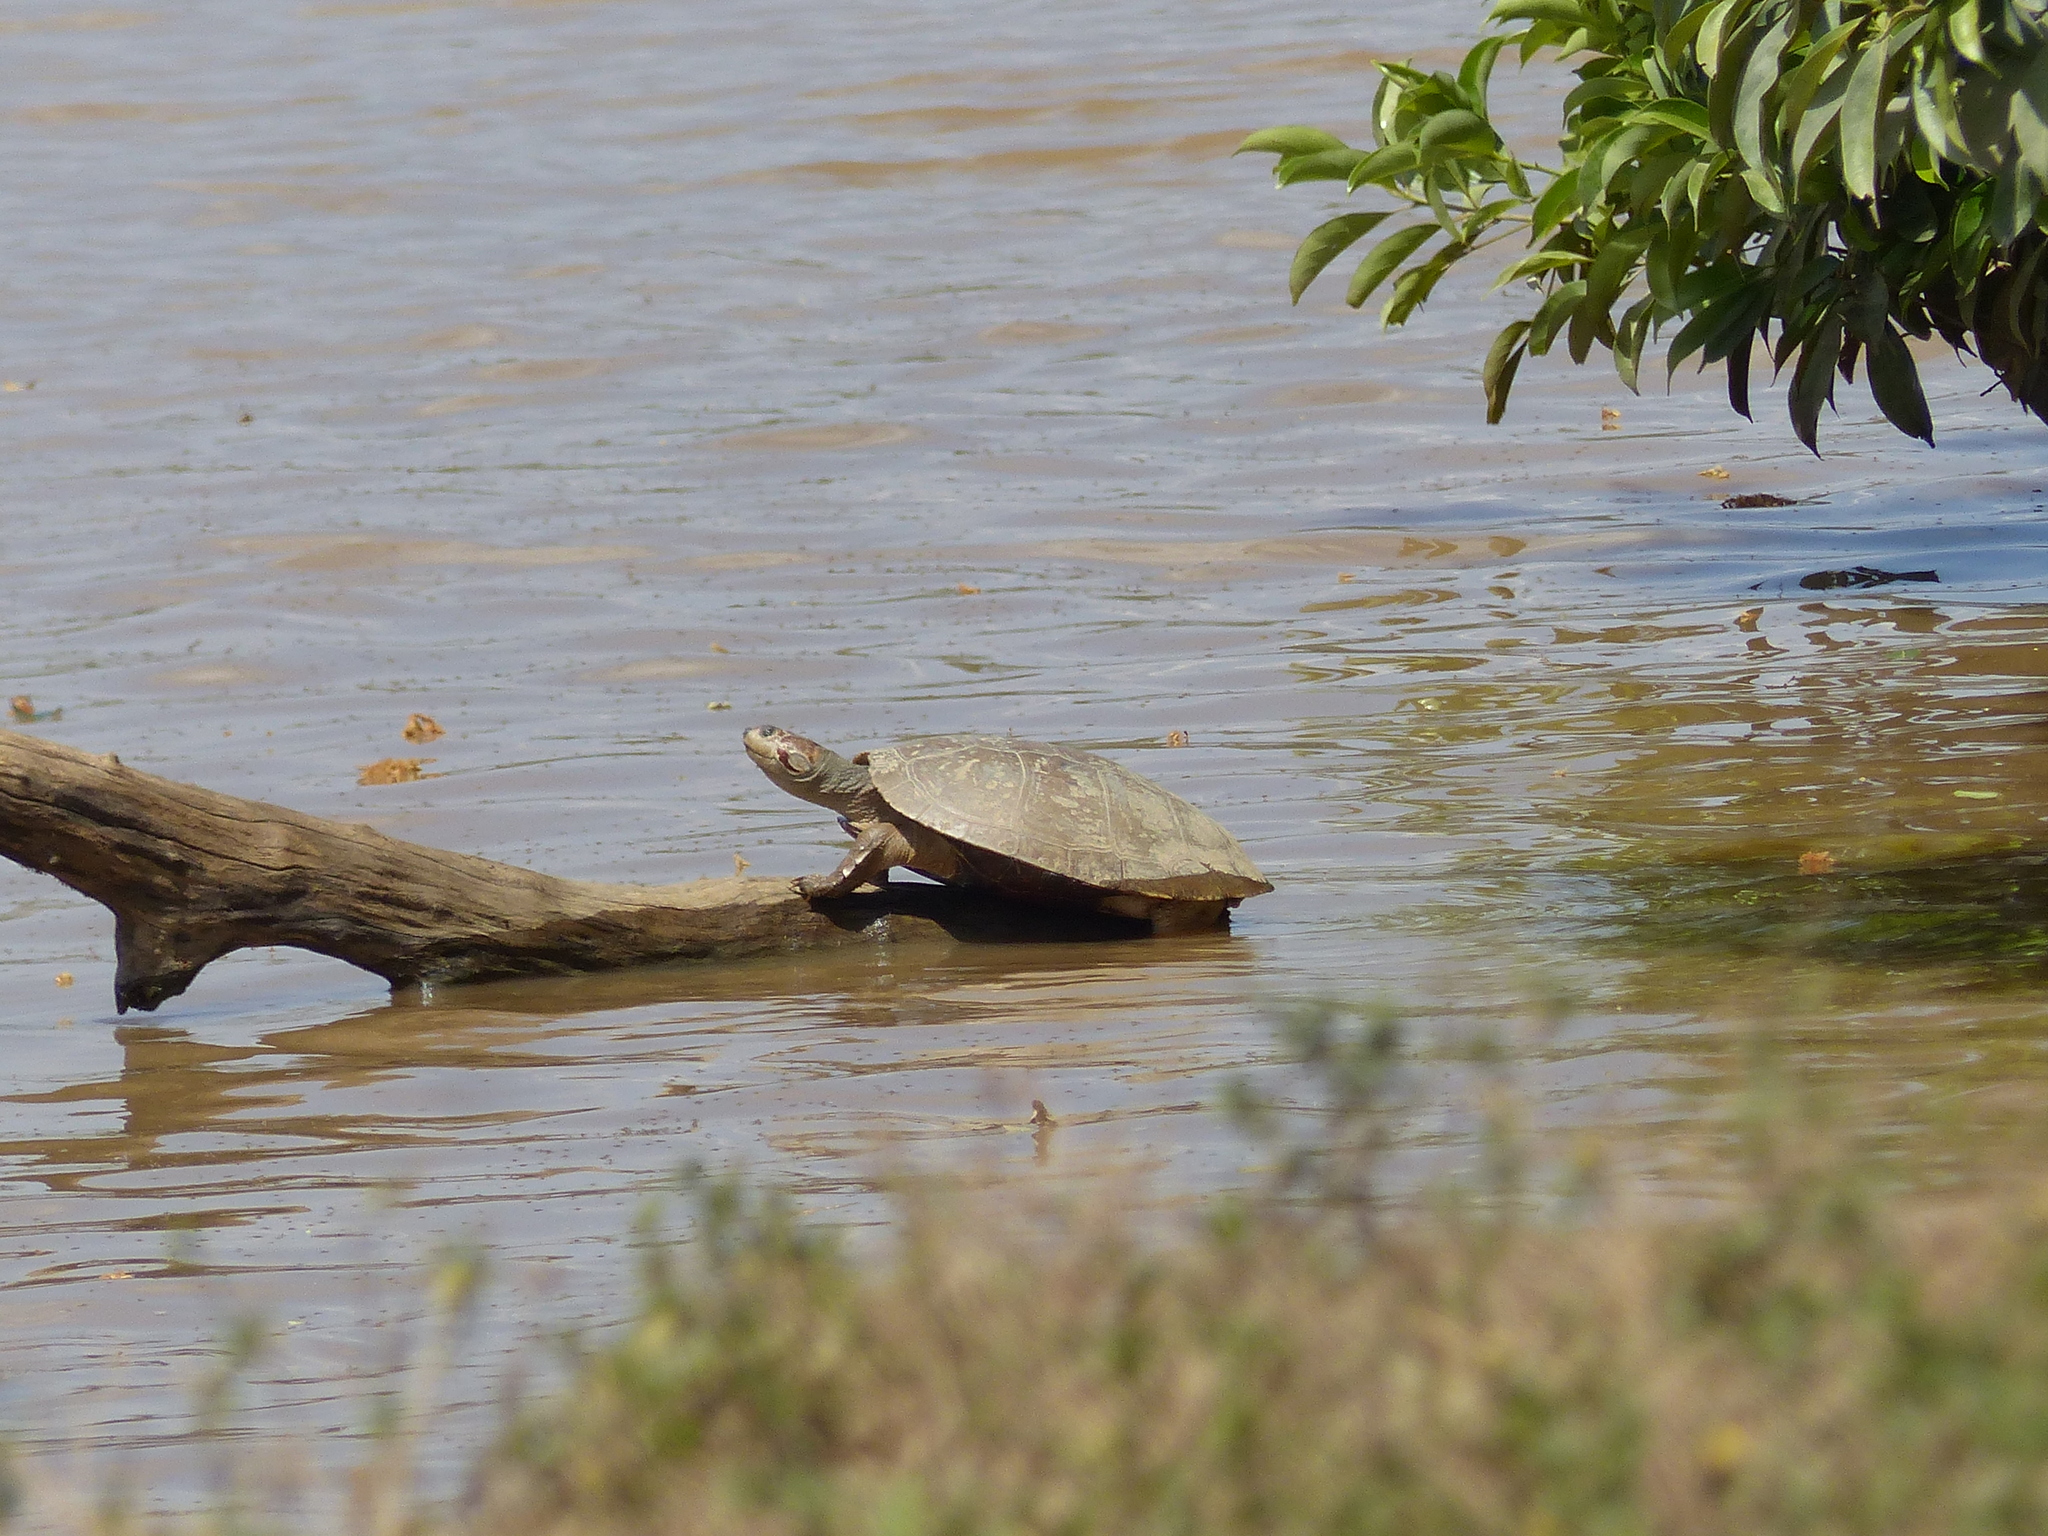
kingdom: Animalia
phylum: Chordata
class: Testudines
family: Podocnemididae
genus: Podocnemis
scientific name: Podocnemis vogli
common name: Savanna side-necked turtle
